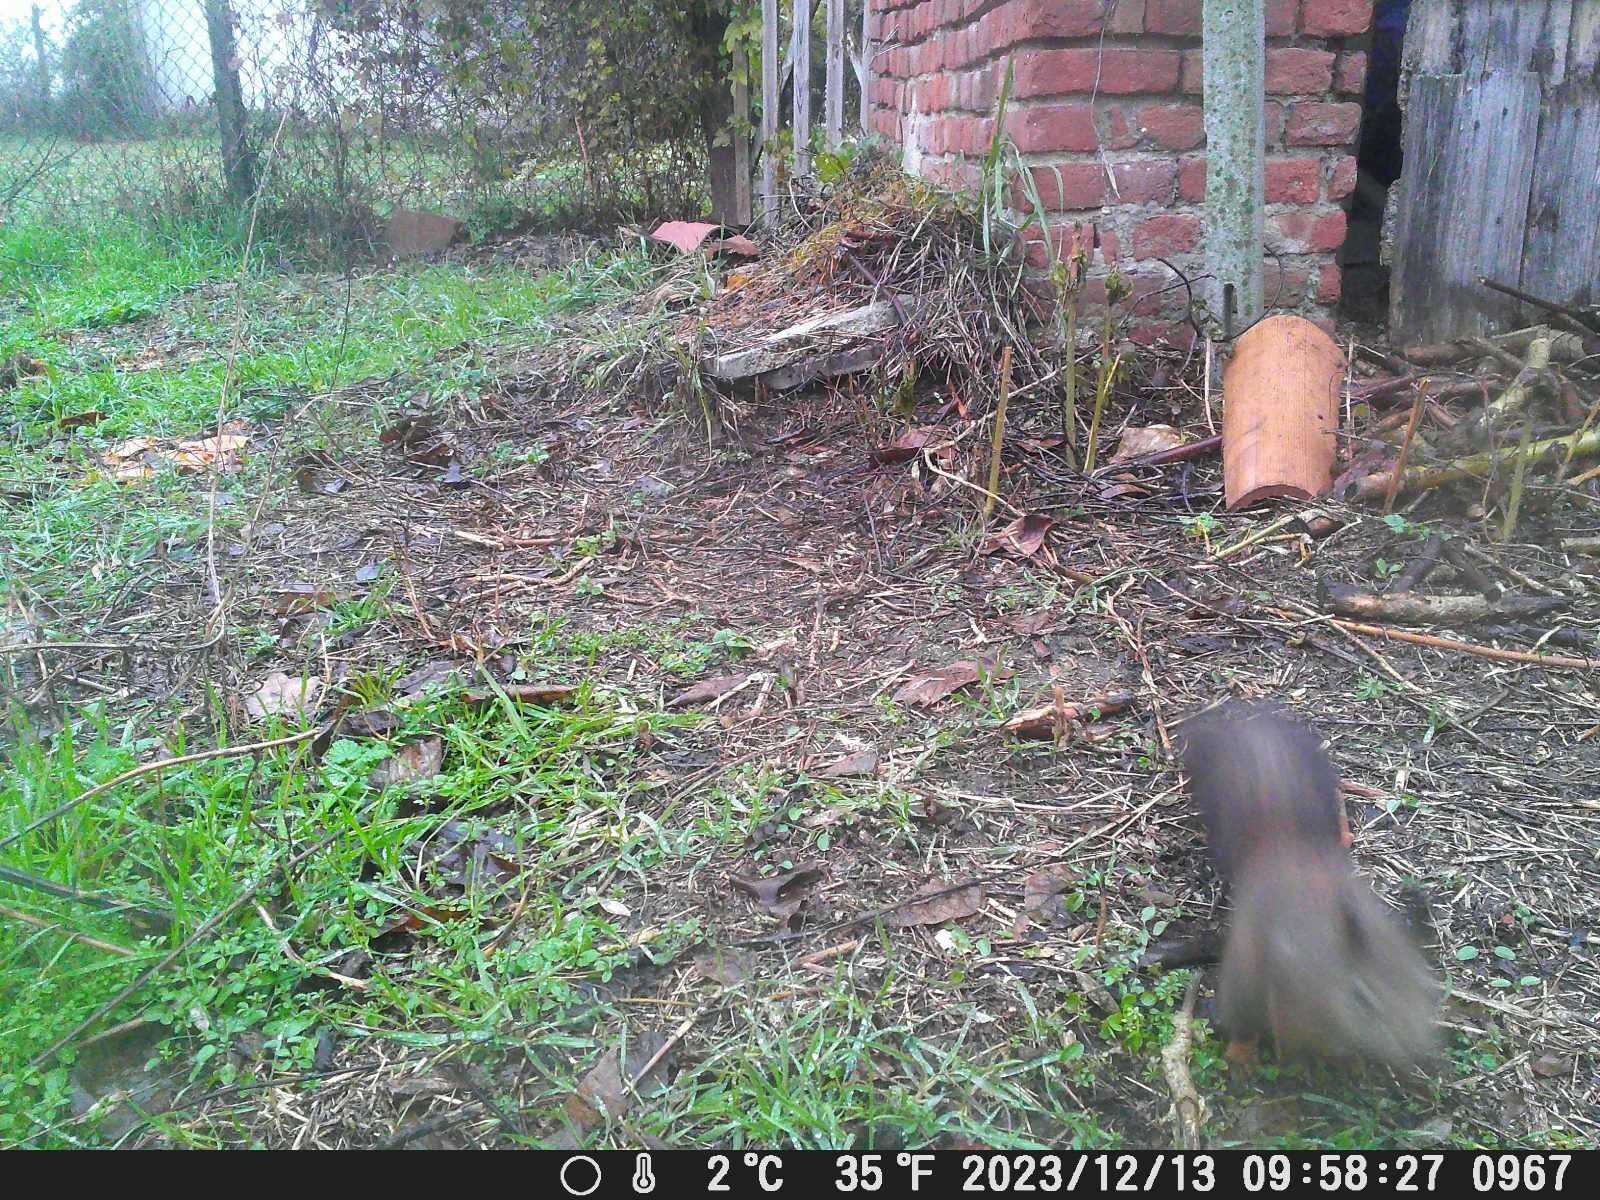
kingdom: Animalia
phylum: Chordata
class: Mammalia
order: Rodentia
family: Sciuridae
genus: Sciurus
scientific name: Sciurus vulgaris
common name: Eurasian red squirrel
